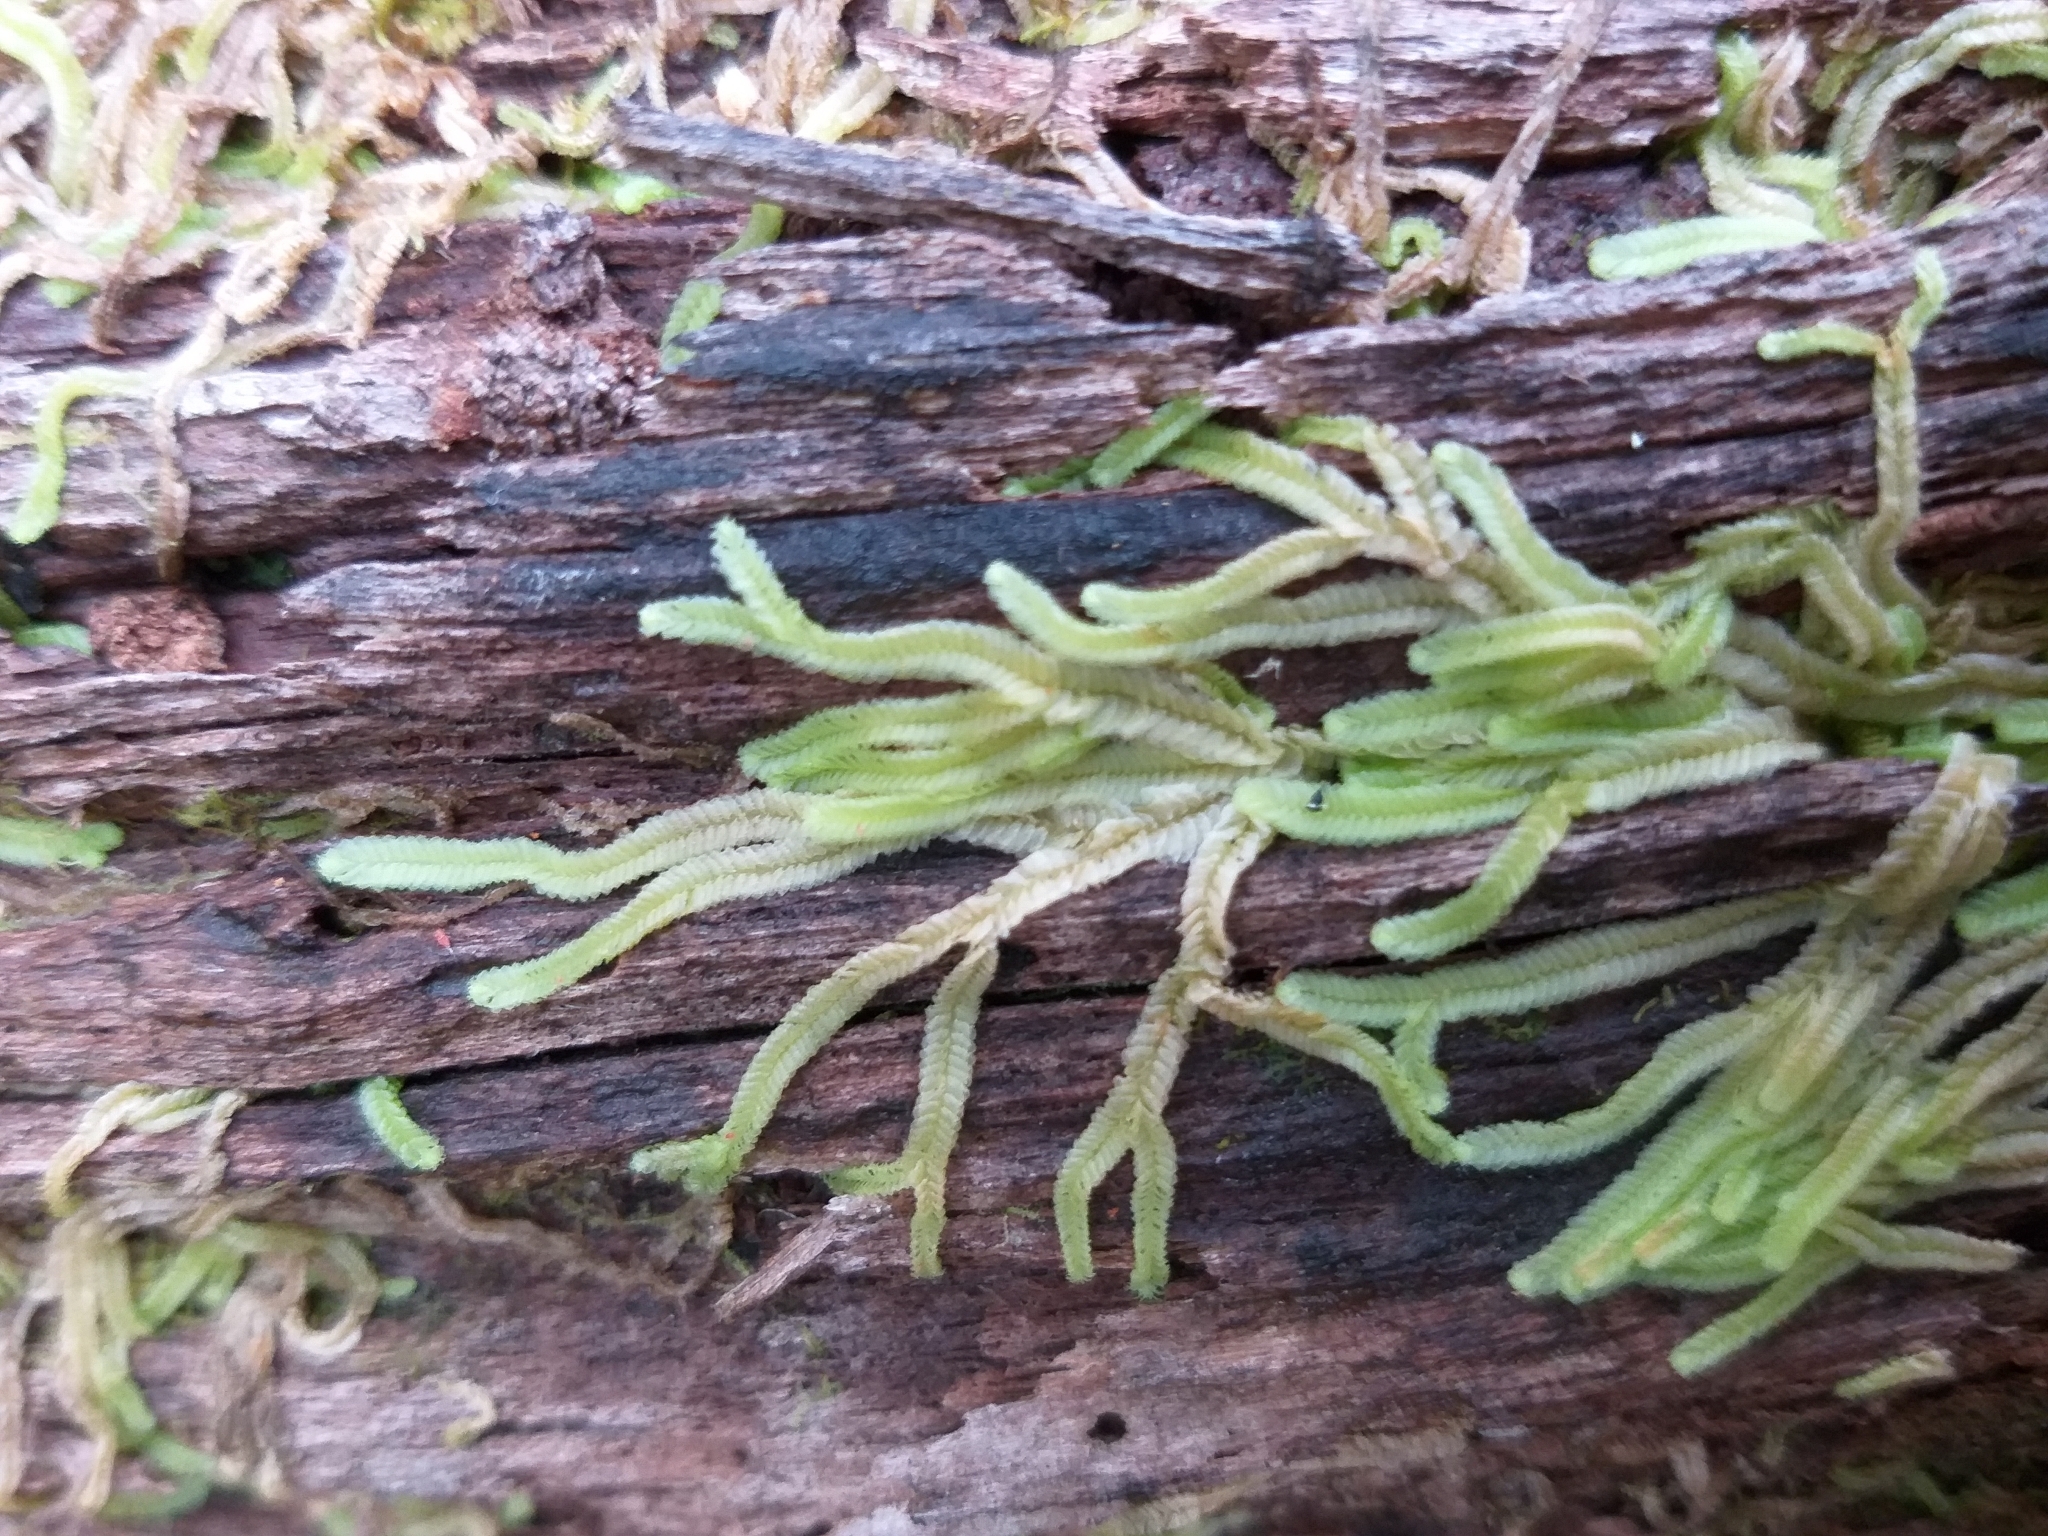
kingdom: Plantae
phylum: Marchantiophyta
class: Jungermanniopsida
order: Jungermanniales
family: Lophocoleaceae
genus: Lophocolea
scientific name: Lophocolea
